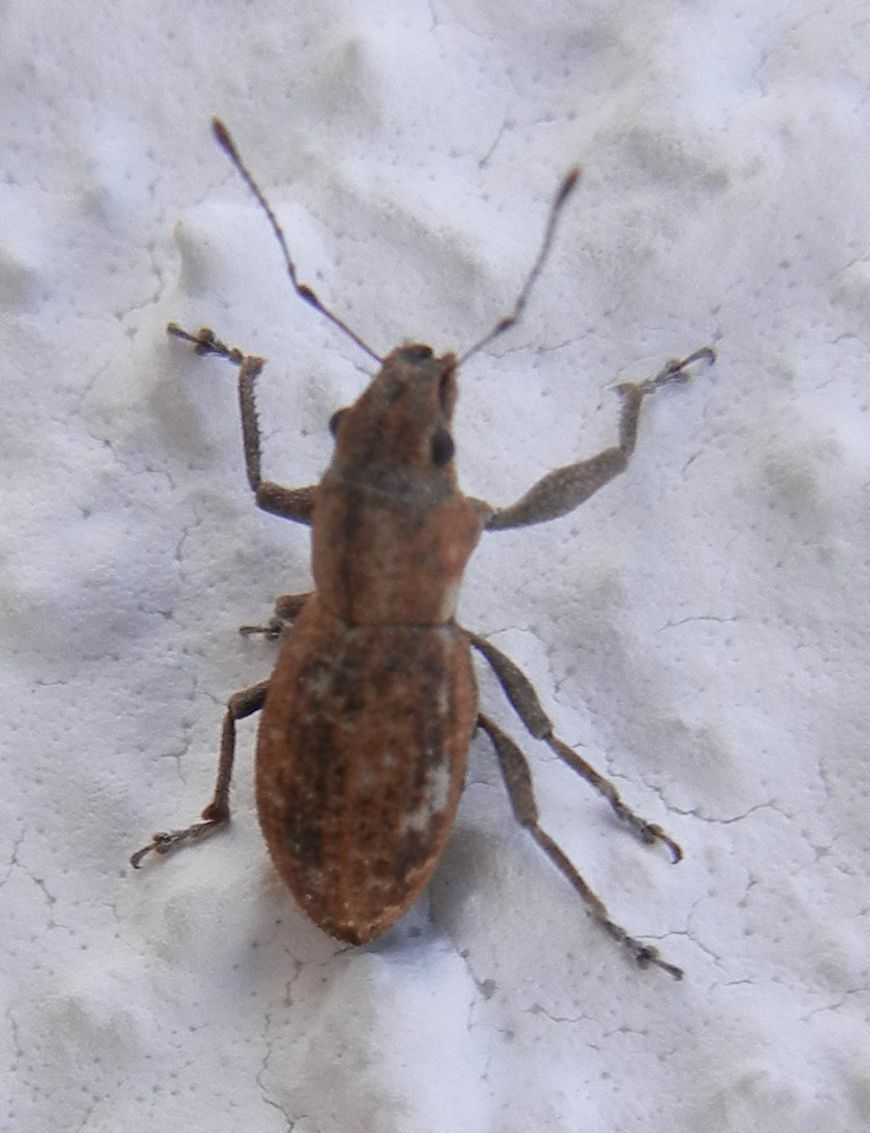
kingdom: Animalia
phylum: Arthropoda
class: Insecta
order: Coleoptera
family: Curculionidae
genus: Naupactus
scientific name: Naupactus cervinus
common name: Fuller rose beetle
